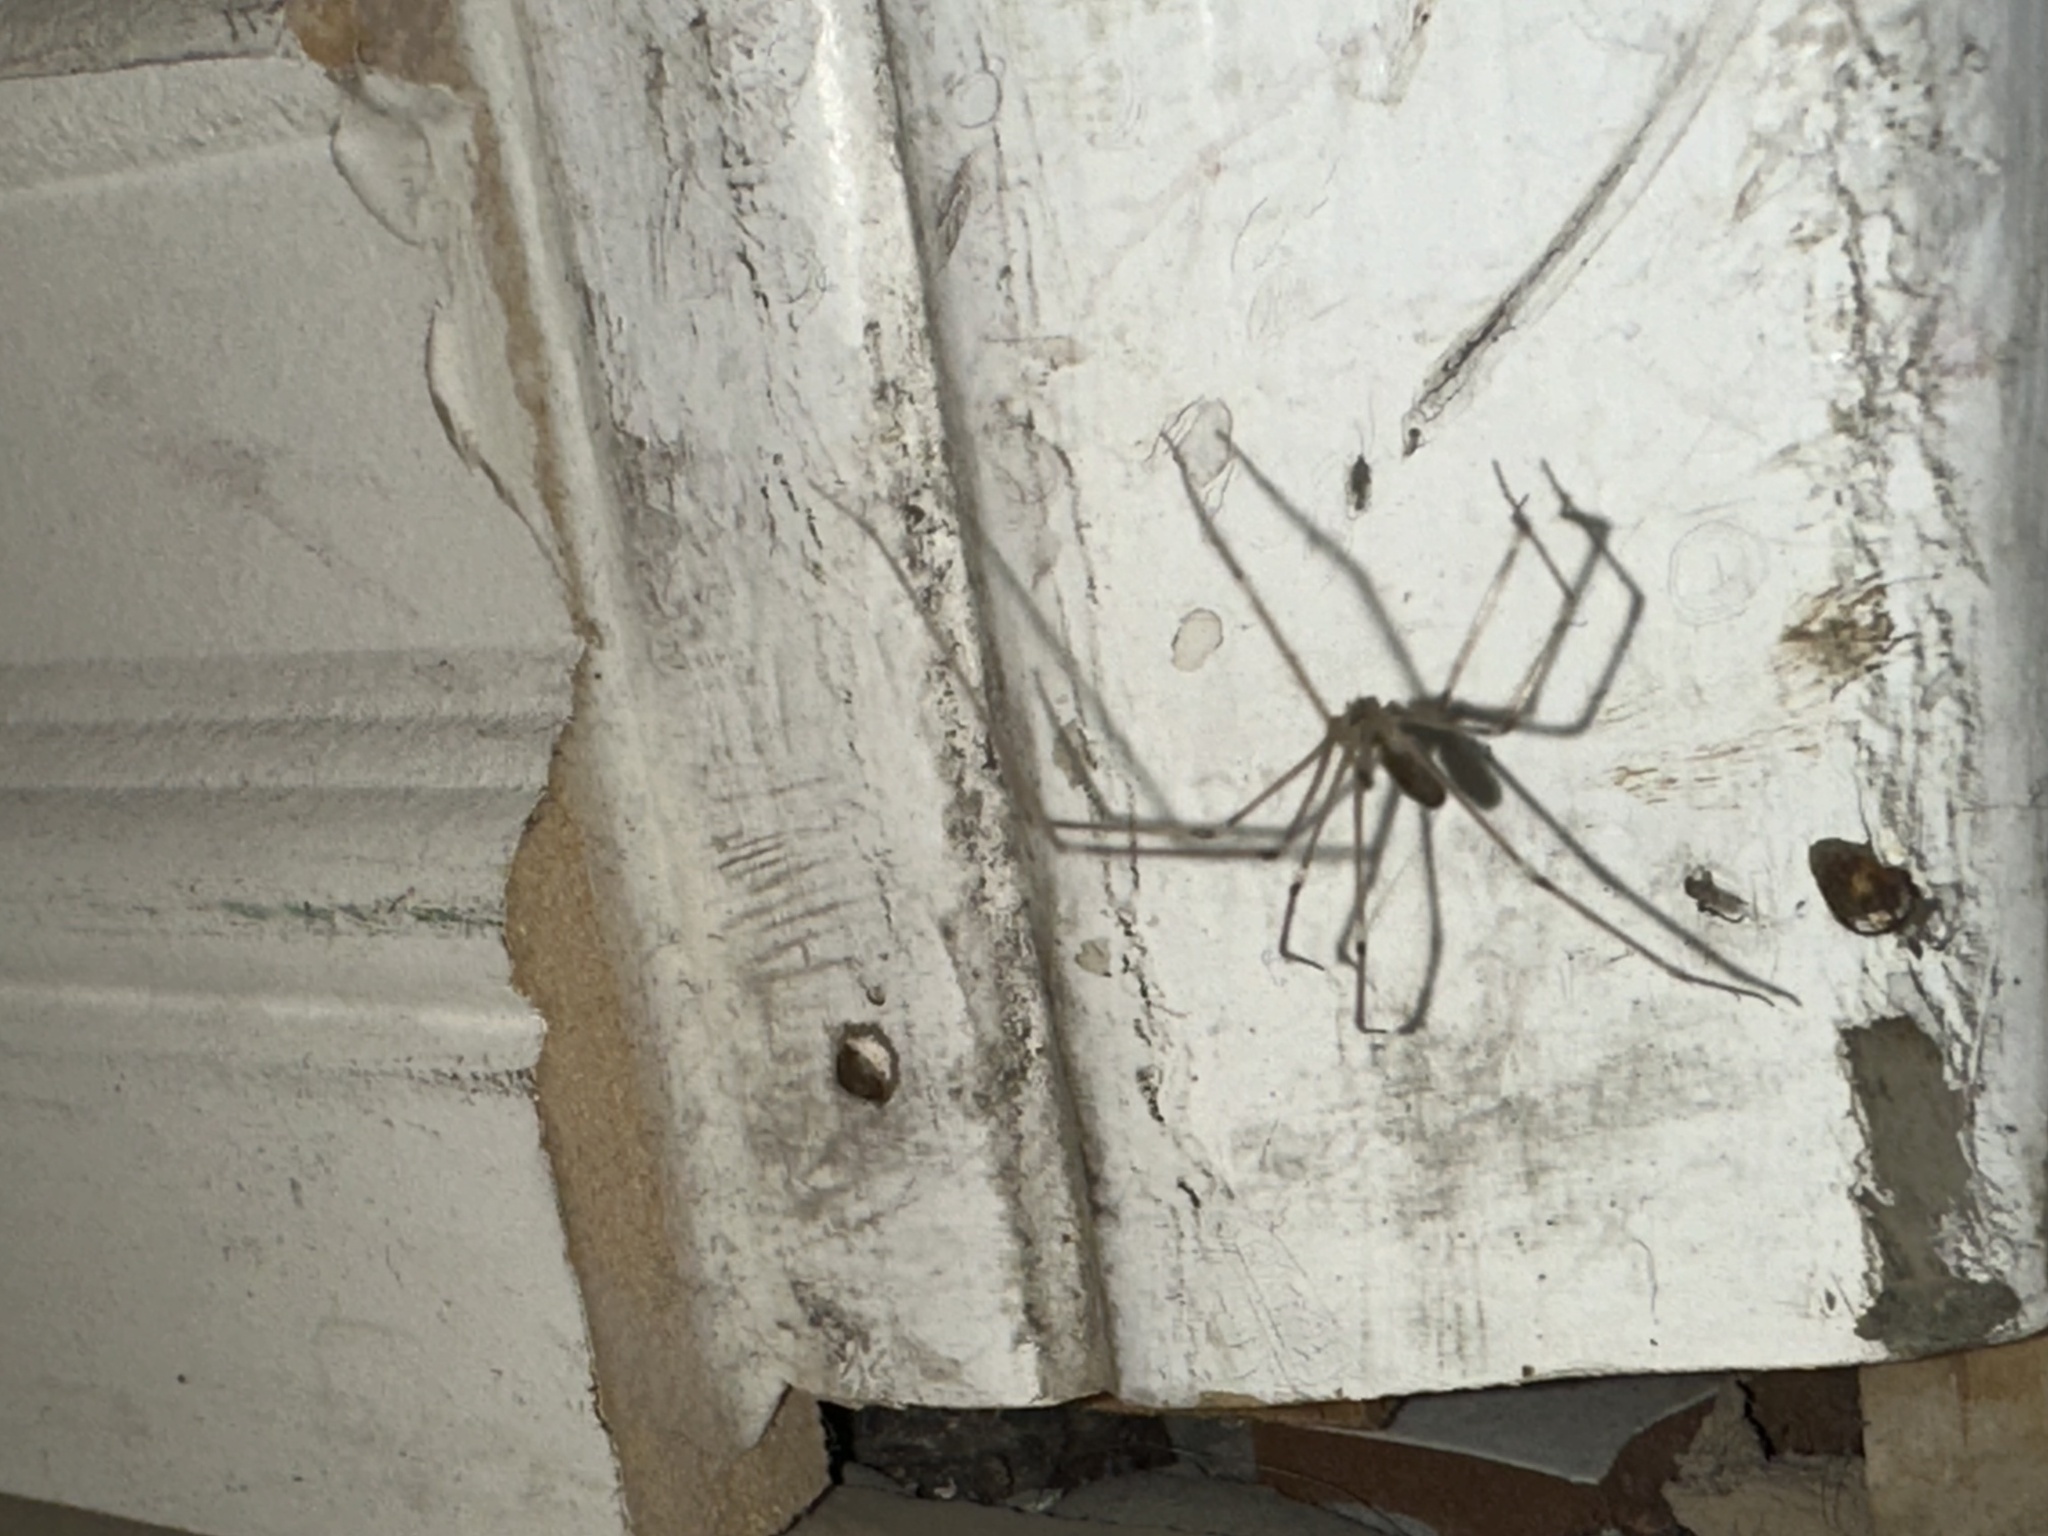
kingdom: Animalia
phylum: Arthropoda
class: Arachnida
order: Araneae
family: Pholcidae
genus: Pholcus
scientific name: Pholcus phalangioides
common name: Longbodied cellar spider
